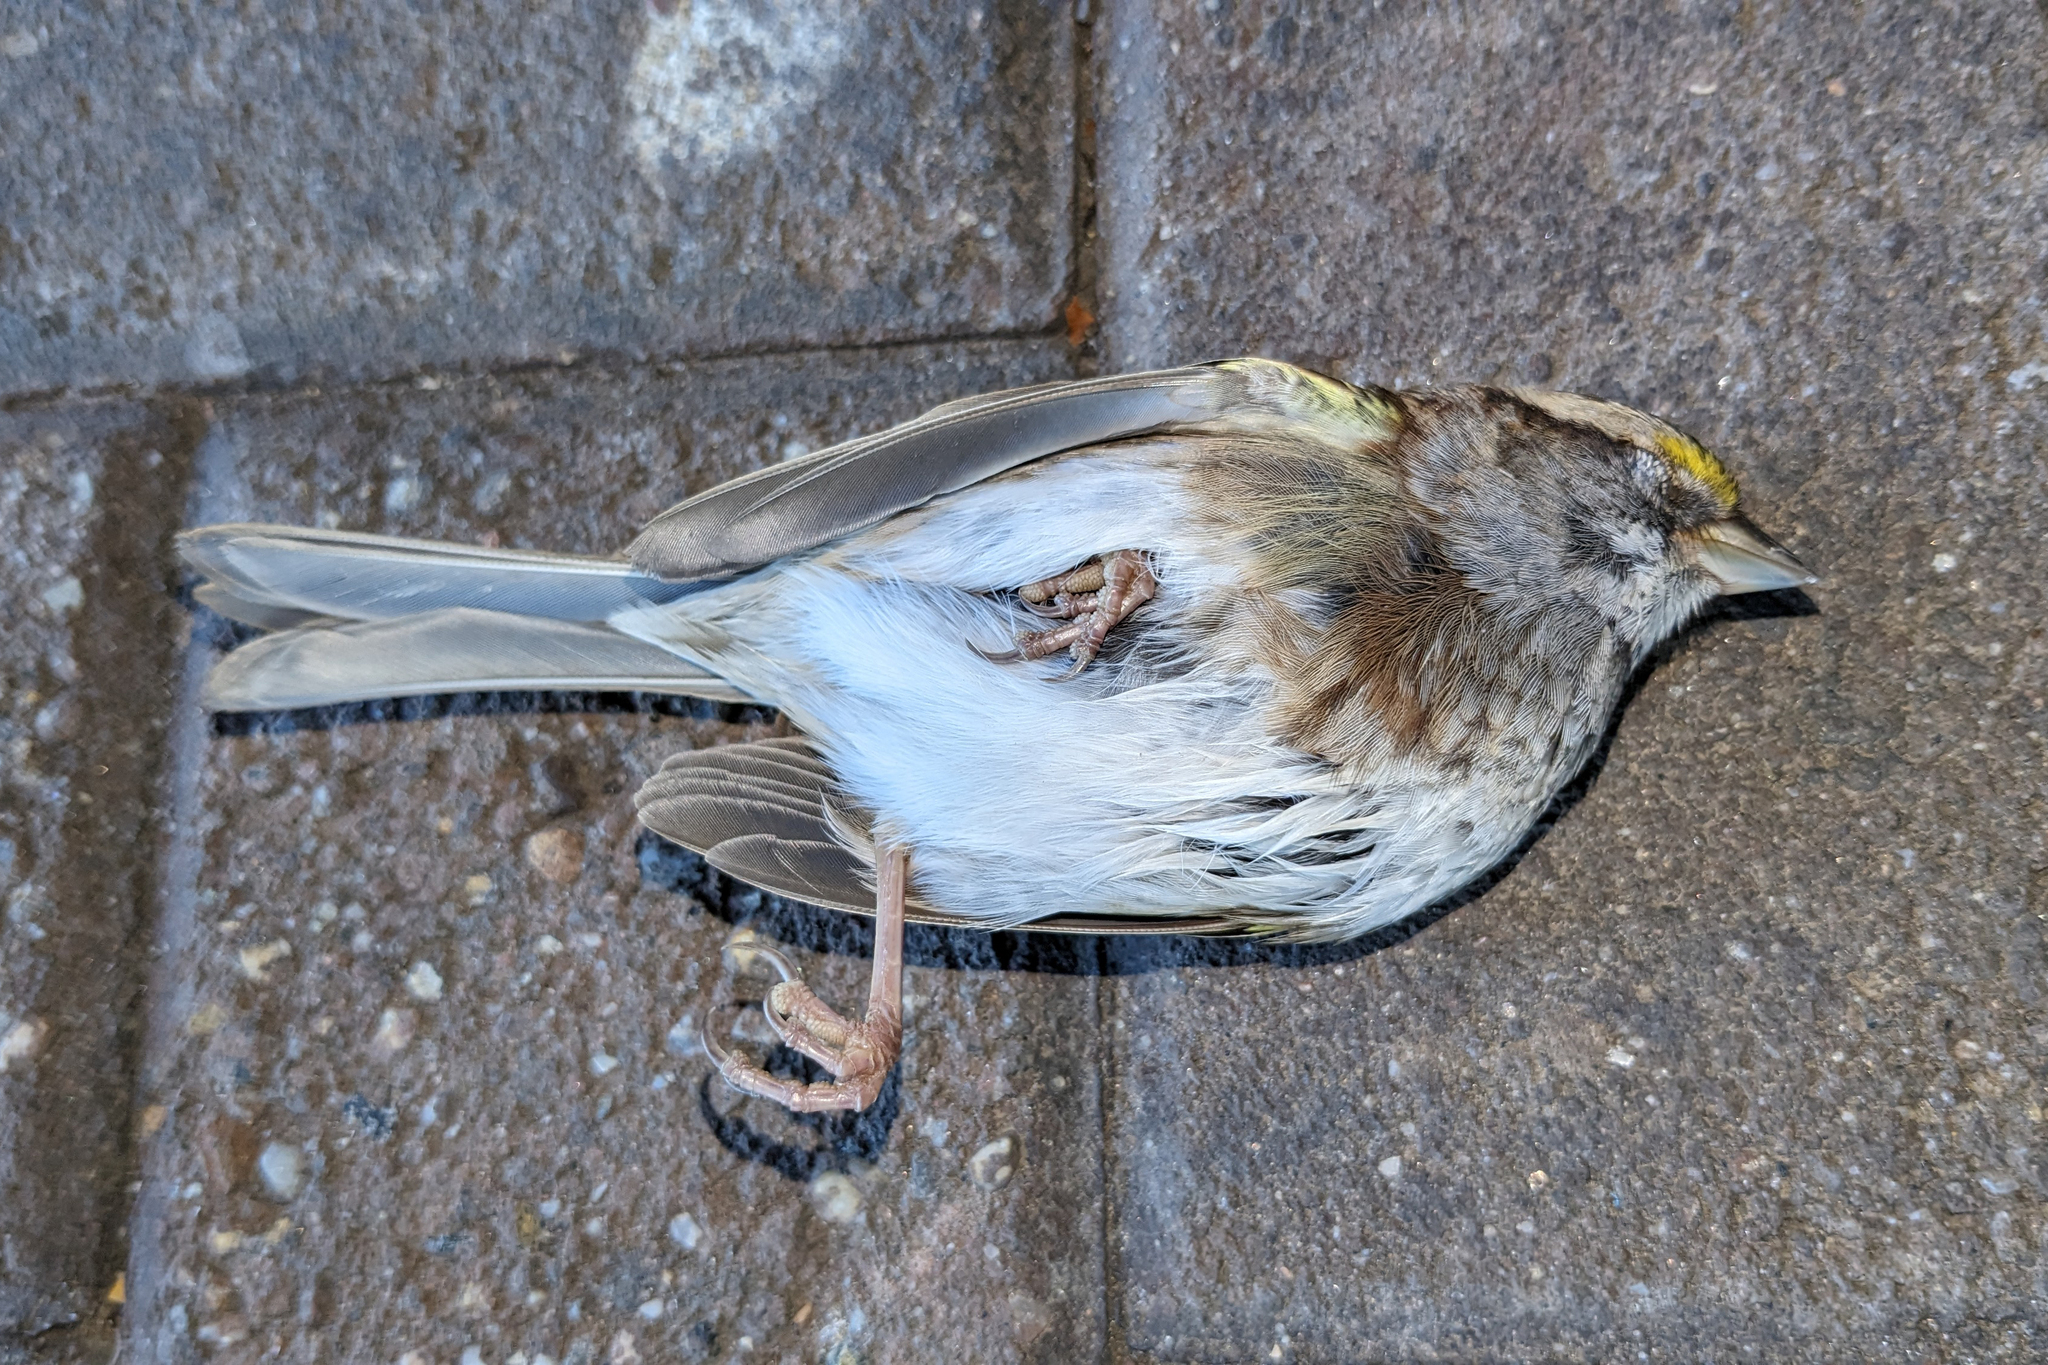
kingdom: Animalia
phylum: Chordata
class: Aves
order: Passeriformes
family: Passerellidae
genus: Zonotrichia
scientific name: Zonotrichia albicollis
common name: White-throated sparrow
